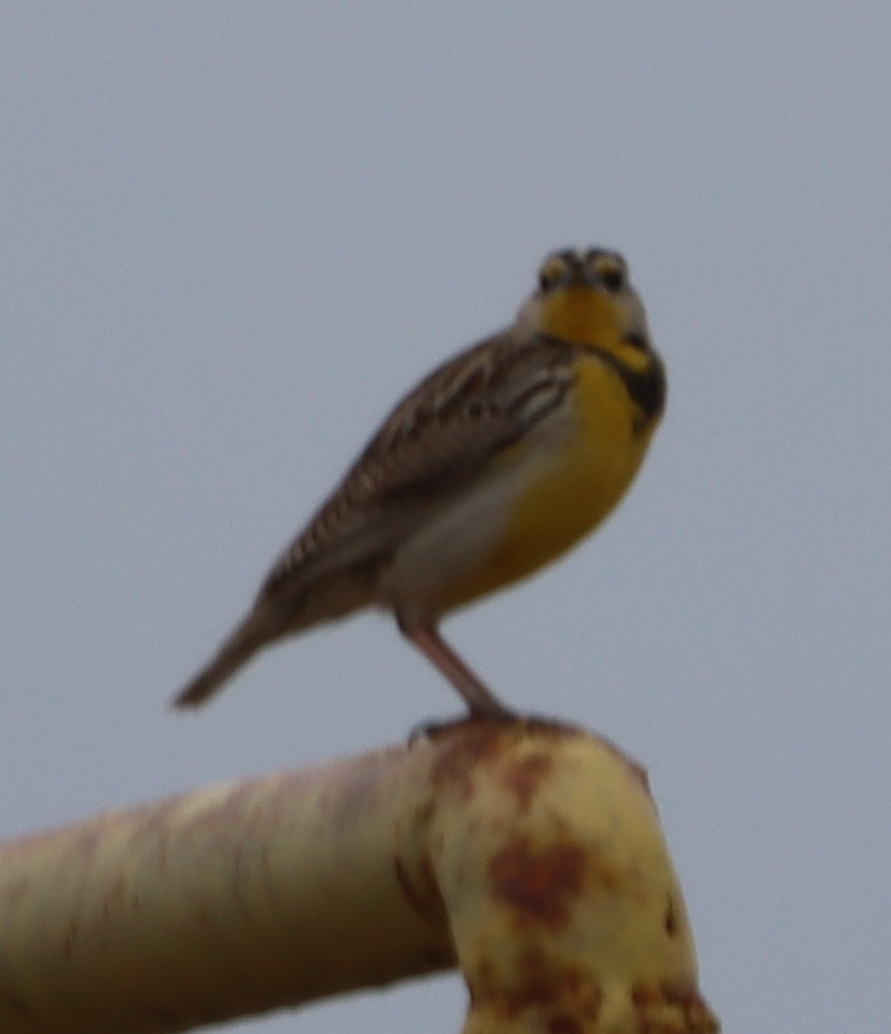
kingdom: Animalia
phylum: Chordata
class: Aves
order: Passeriformes
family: Icteridae
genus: Sturnella
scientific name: Sturnella neglecta
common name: Western meadowlark
